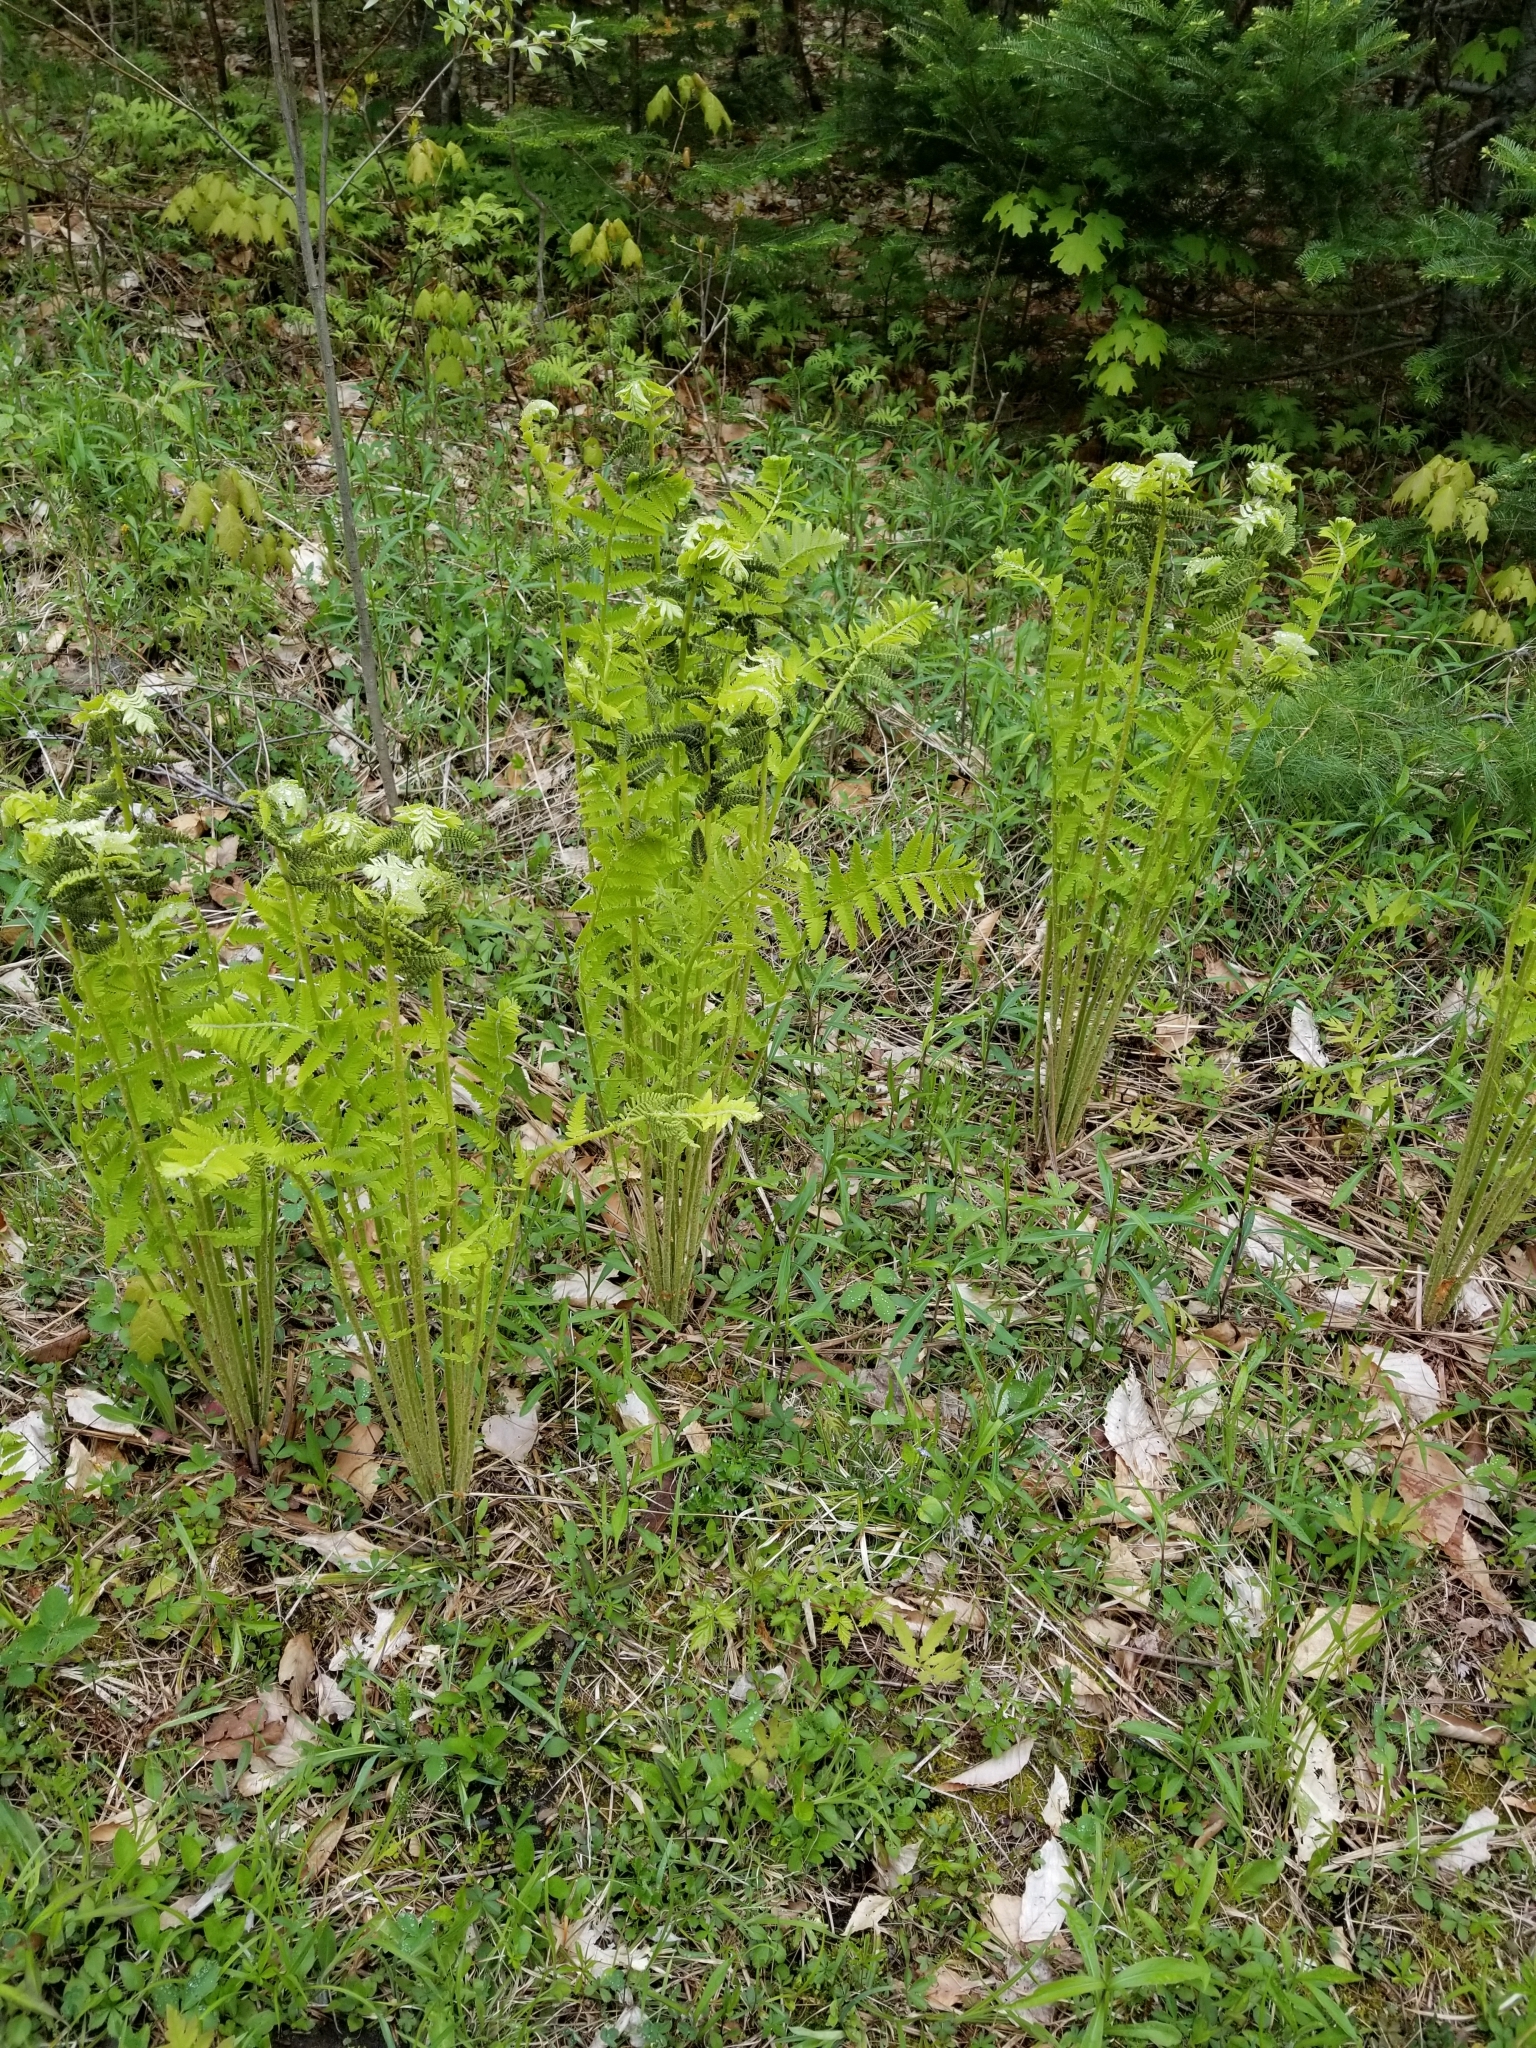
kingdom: Plantae
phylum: Tracheophyta
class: Polypodiopsida
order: Osmundales
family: Osmundaceae
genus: Claytosmunda
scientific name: Claytosmunda claytoniana
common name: Clayton's fern
